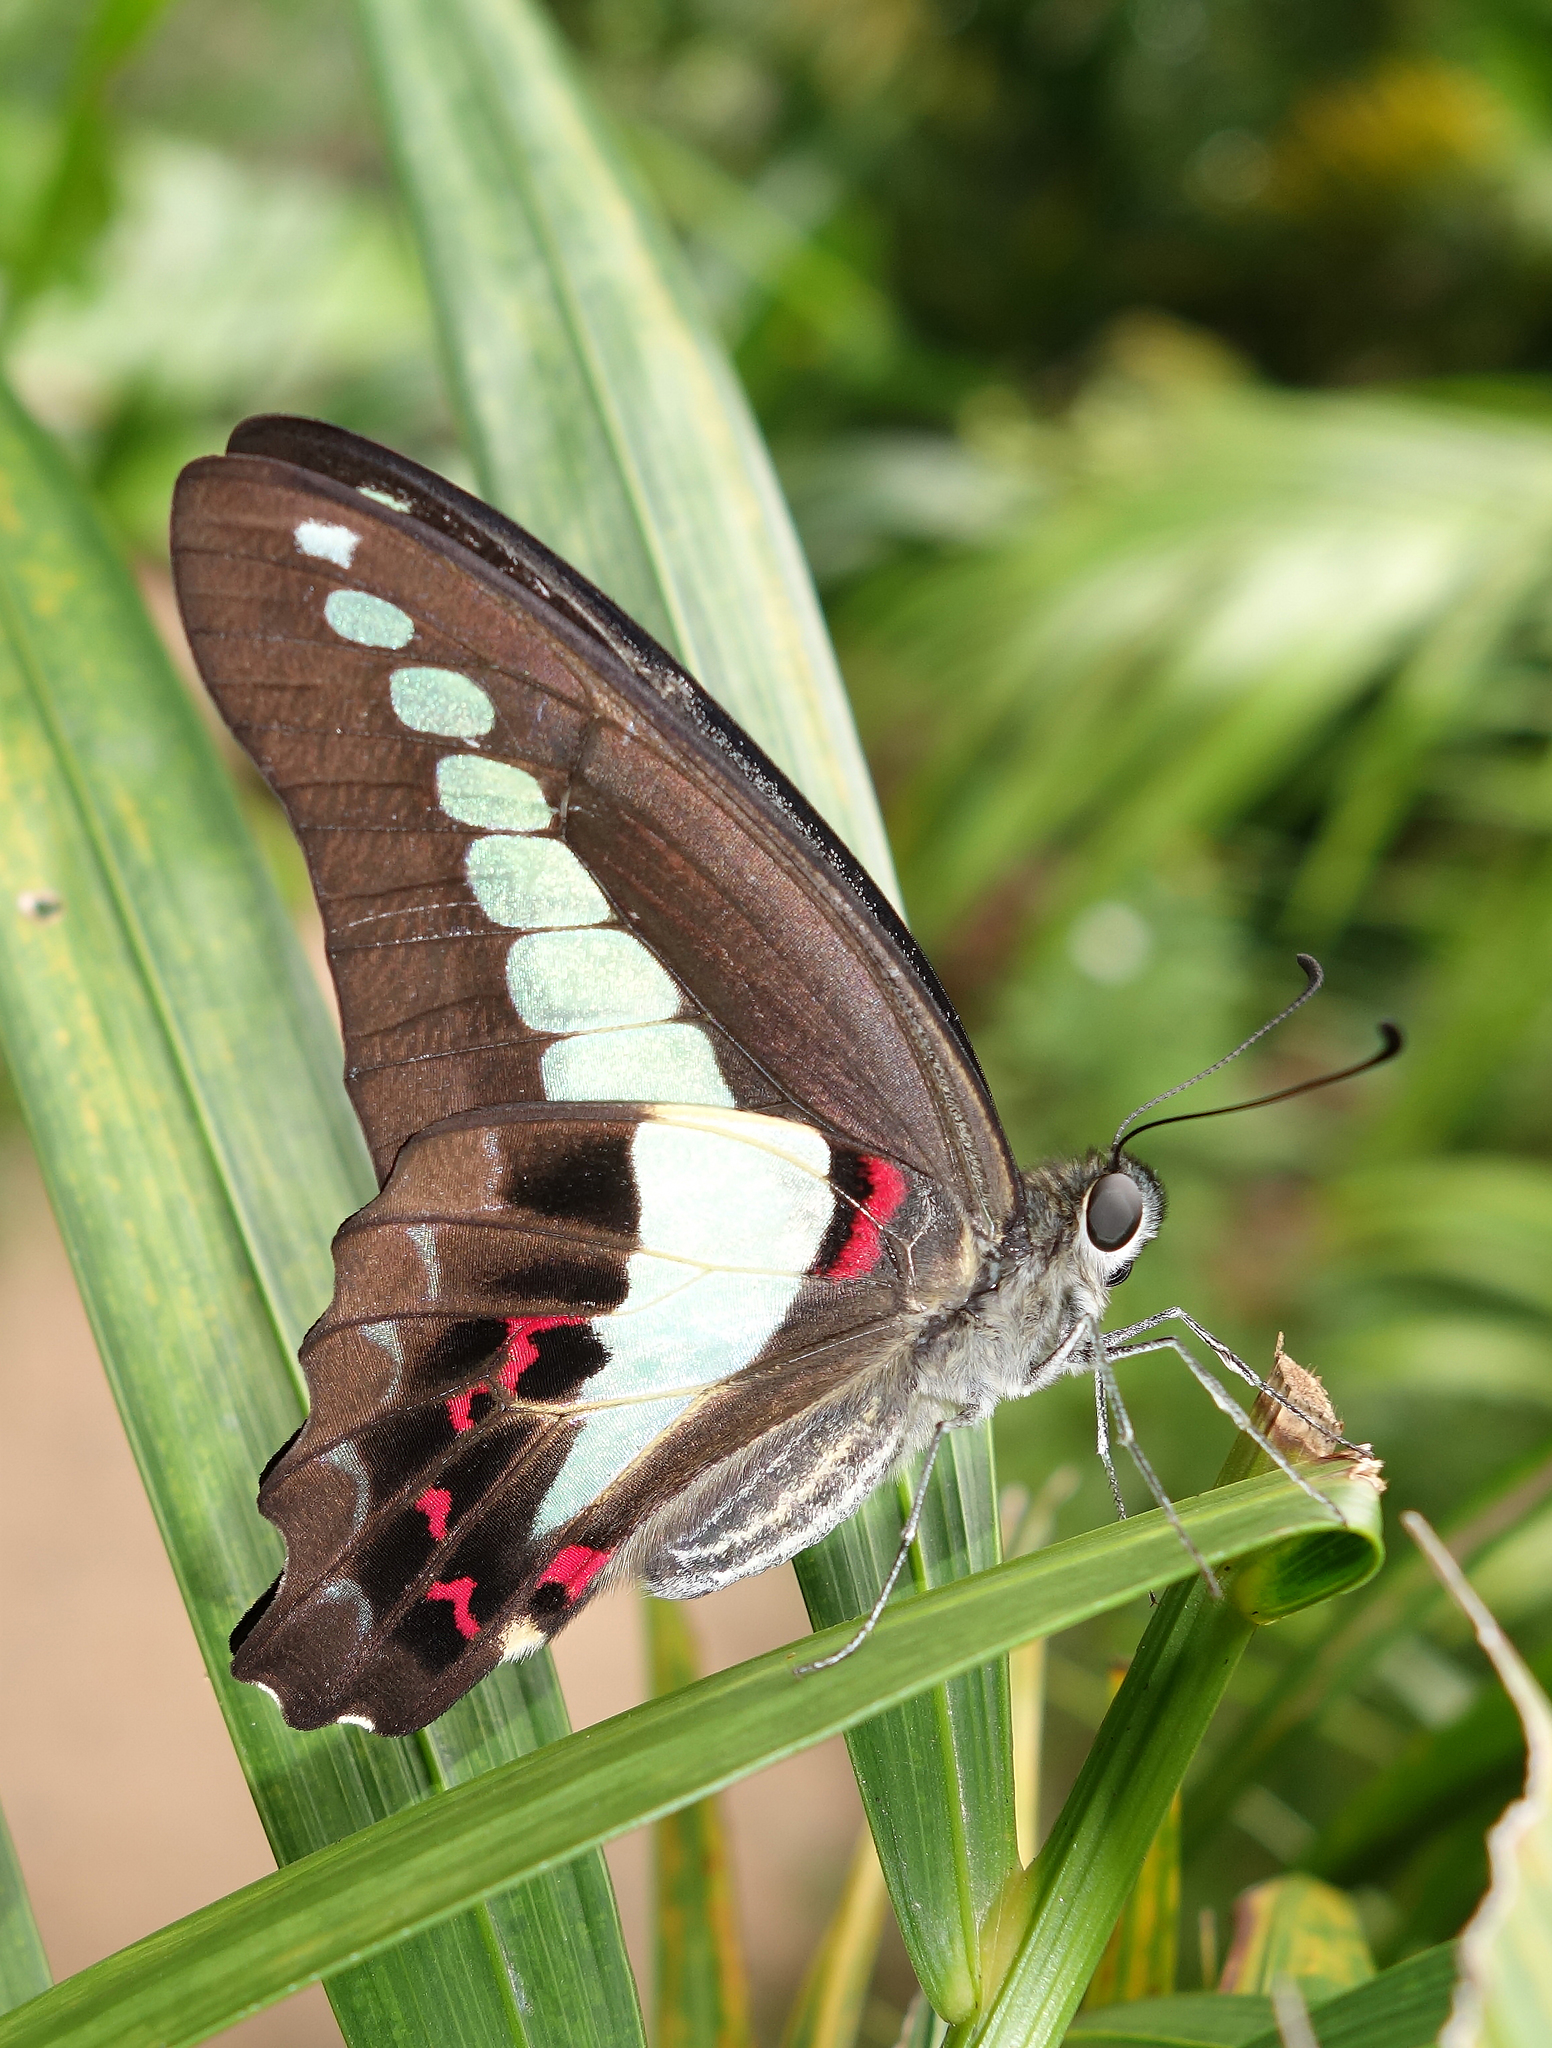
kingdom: Fungi
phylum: Ascomycota
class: Sordariomycetes
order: Microascales
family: Microascaceae
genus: Graphium
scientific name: Graphium sarpedon
